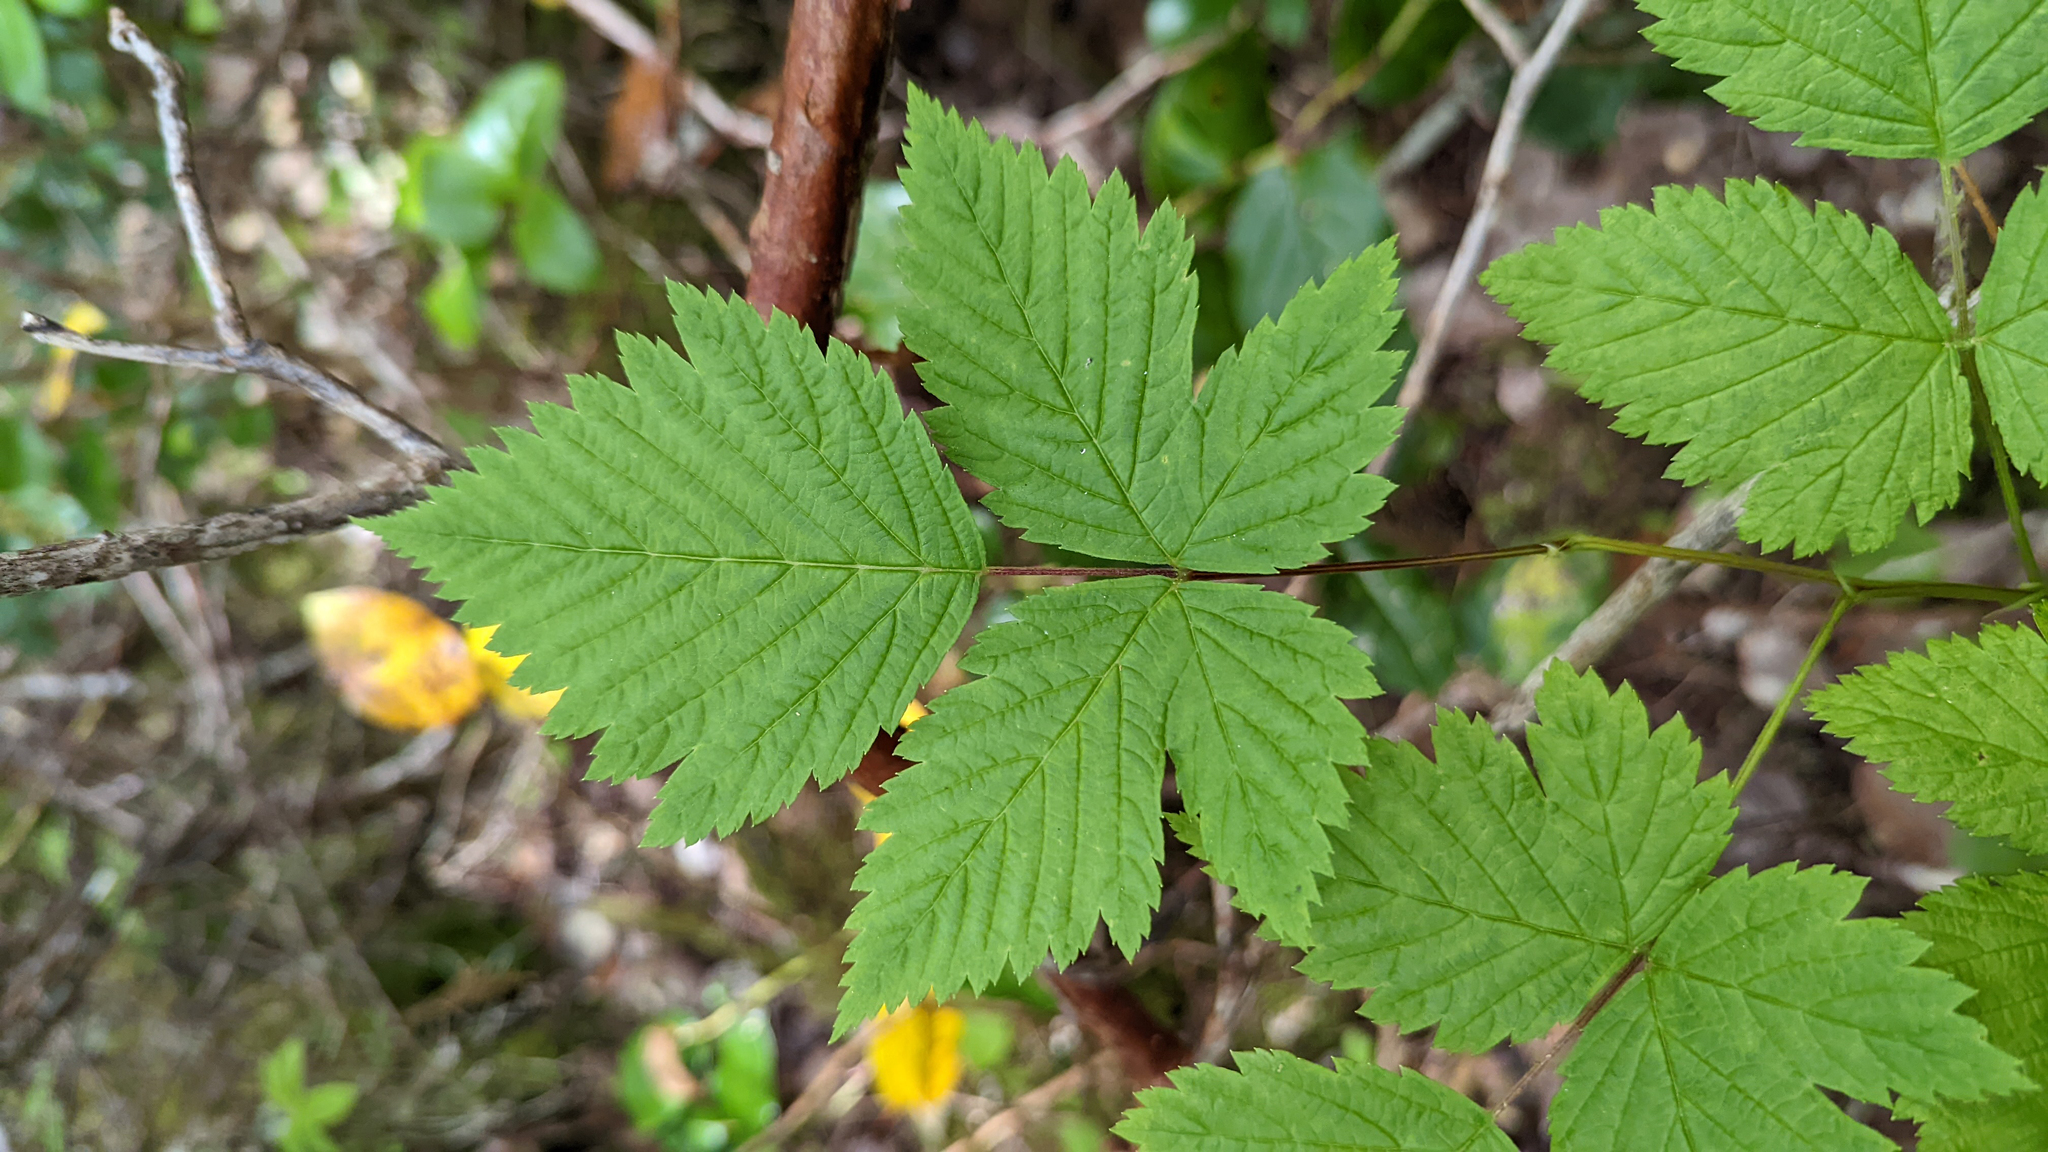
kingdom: Plantae
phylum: Tracheophyta
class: Magnoliopsida
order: Rosales
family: Rosaceae
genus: Rubus
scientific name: Rubus spectabilis
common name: Salmonberry
